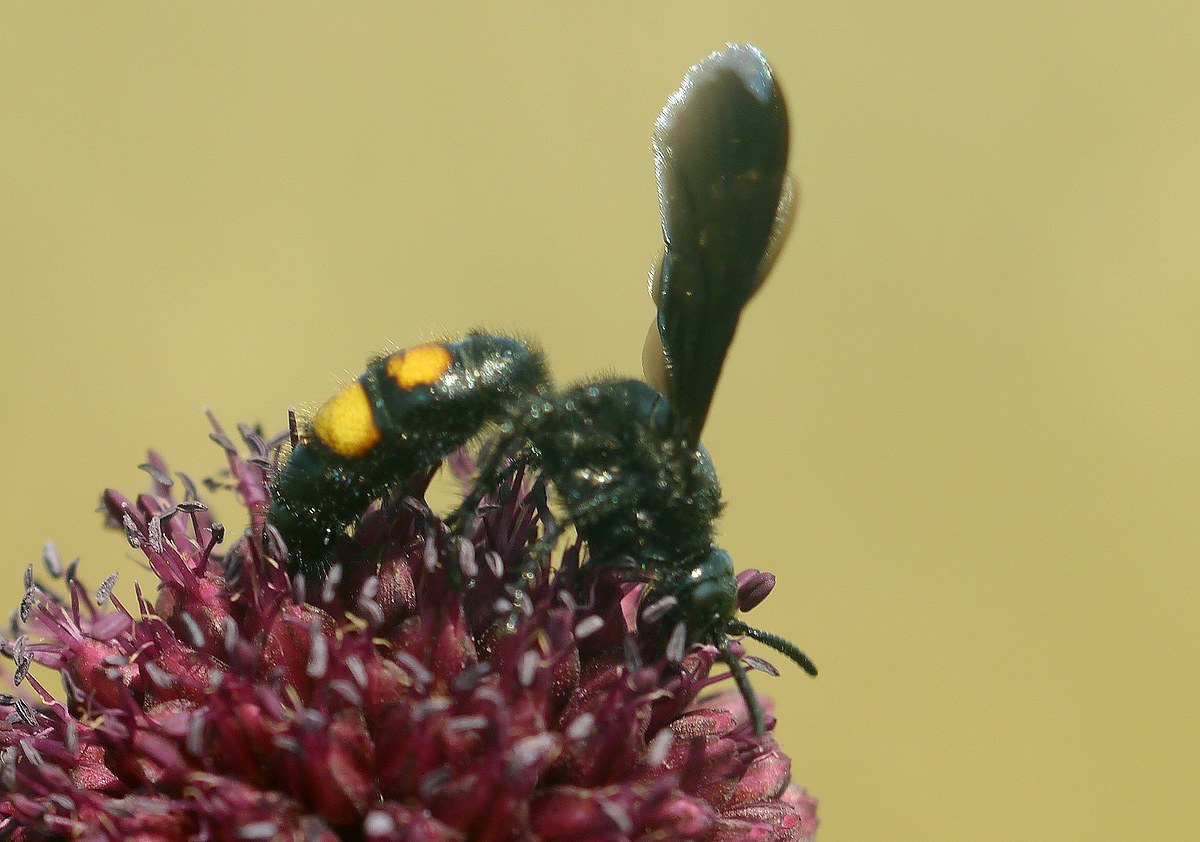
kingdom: Animalia
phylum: Arthropoda
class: Insecta
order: Hymenoptera
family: Scoliidae
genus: Scolia
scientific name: Scolia hirta
